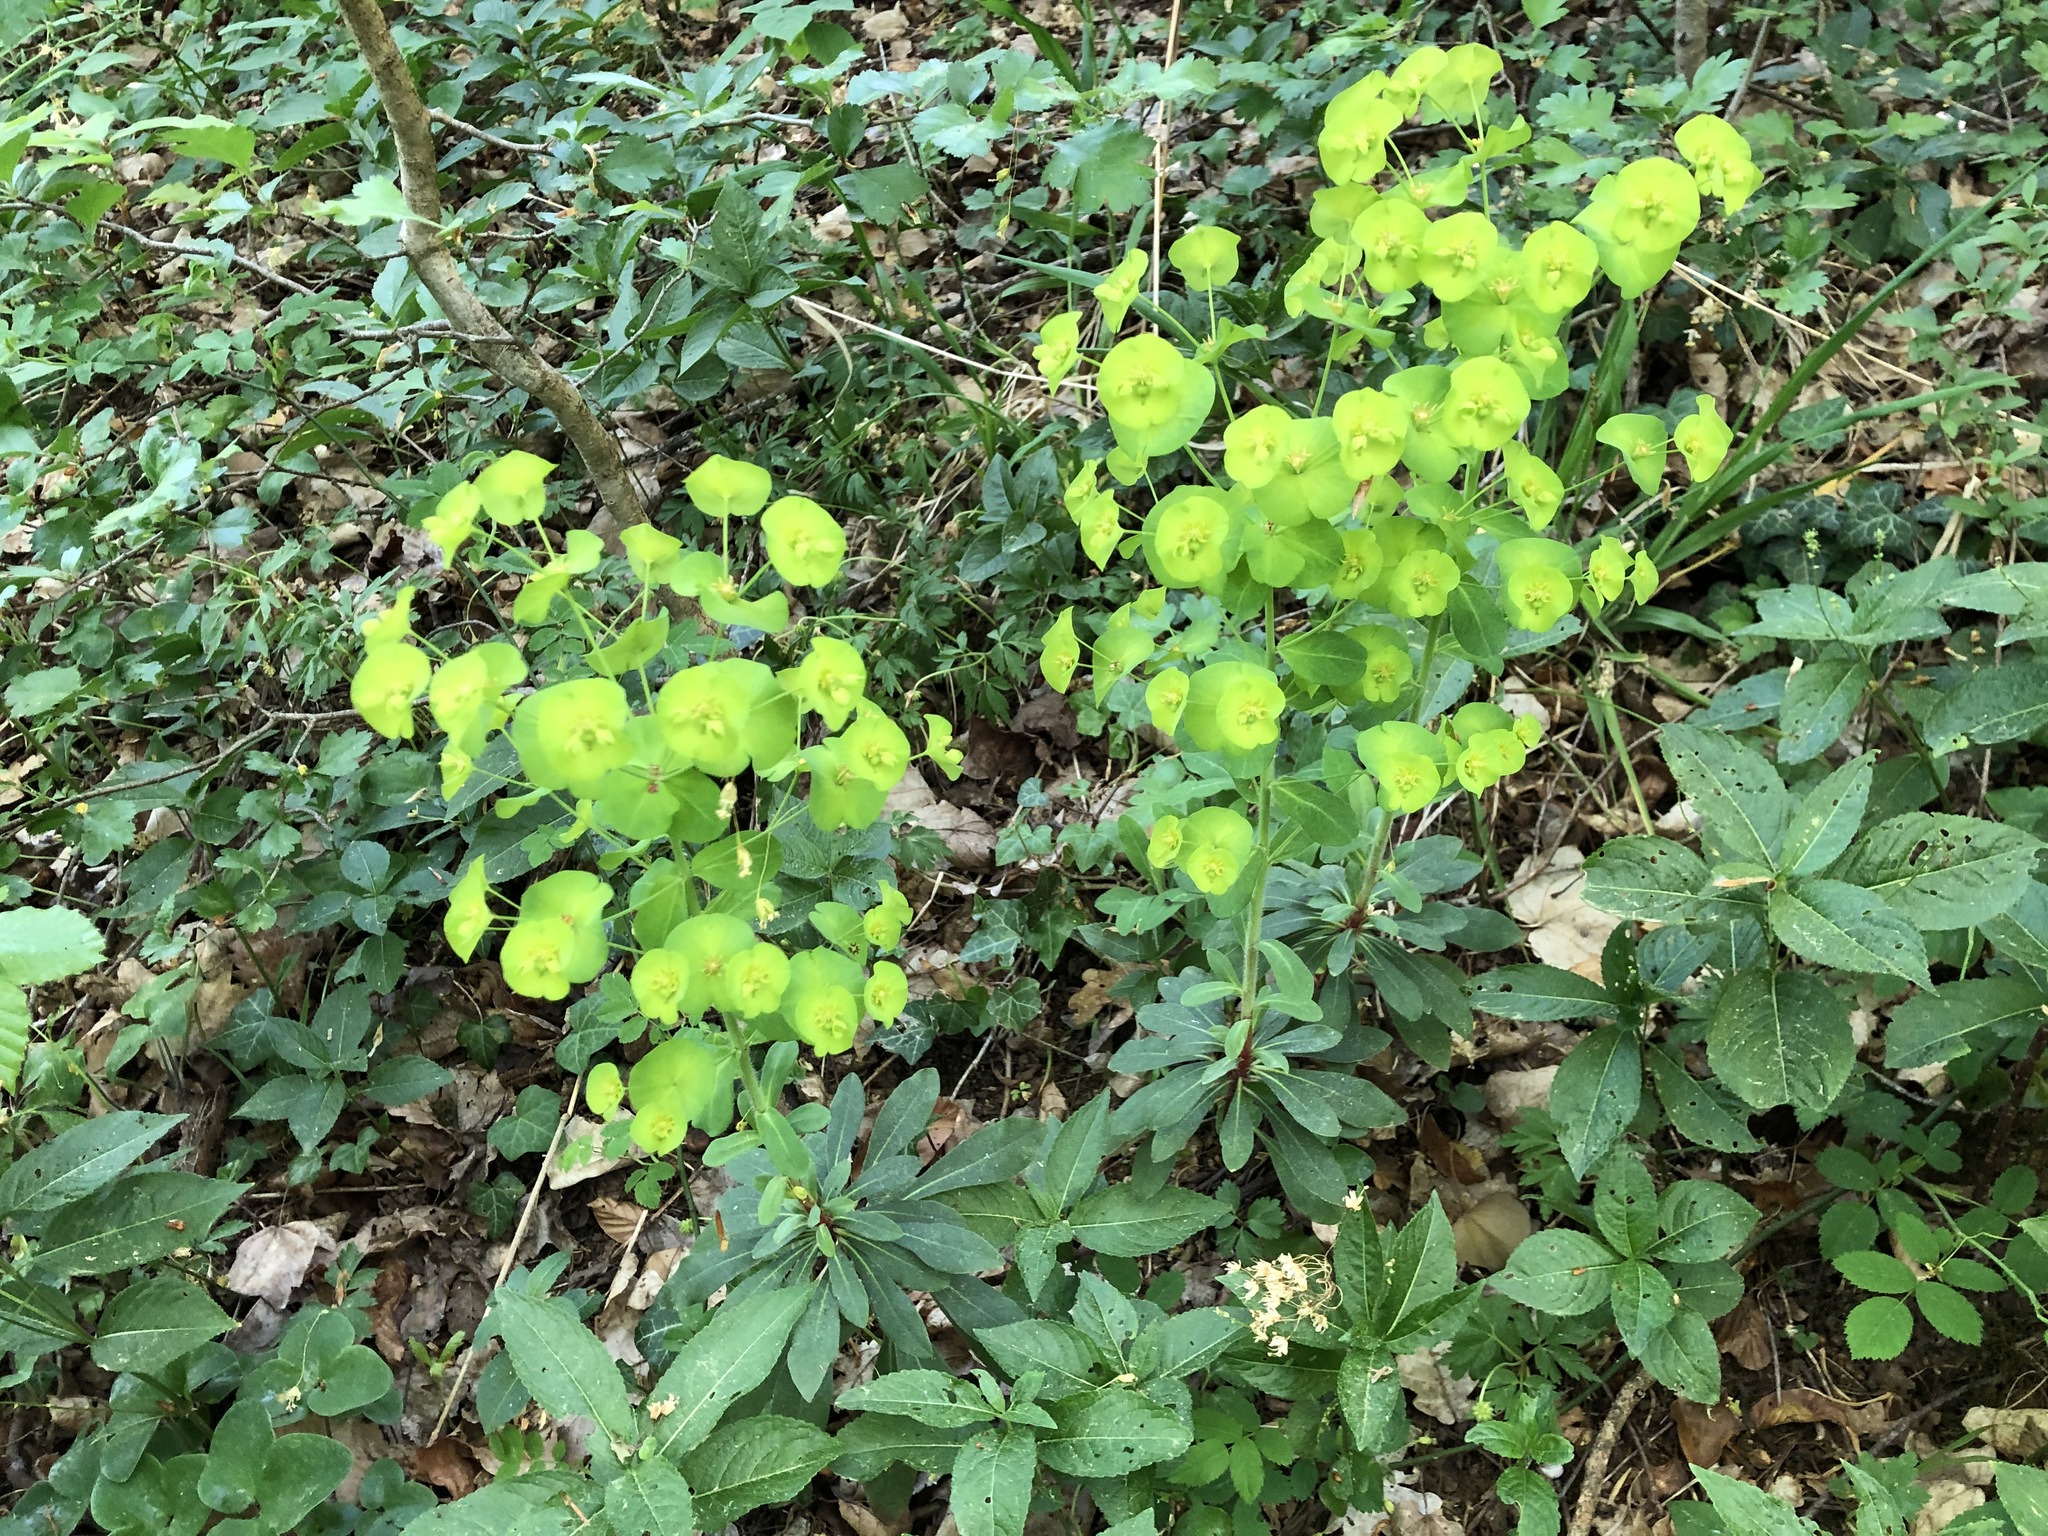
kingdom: Plantae
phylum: Tracheophyta
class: Magnoliopsida
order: Malpighiales
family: Euphorbiaceae
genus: Euphorbia
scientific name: Euphorbia amygdaloides
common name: Wood spurge
